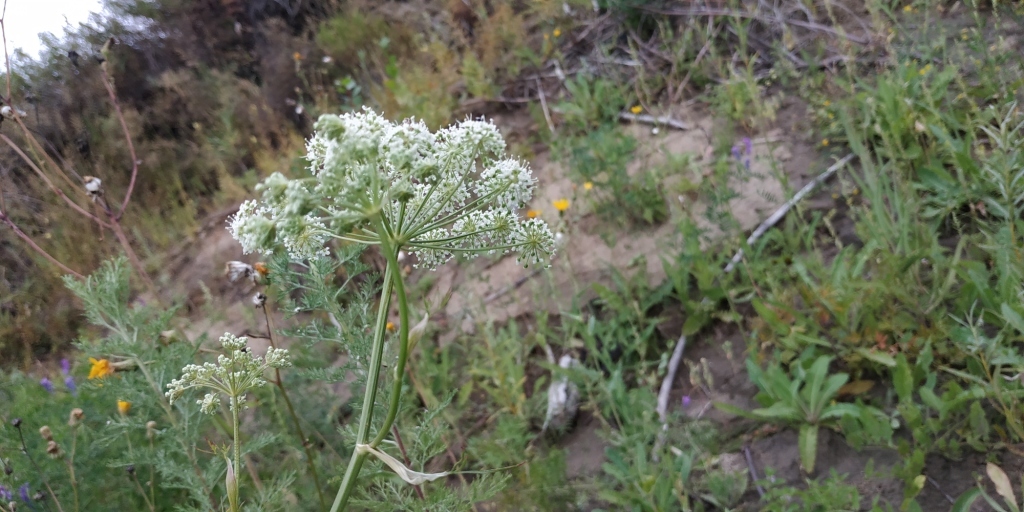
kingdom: Plantae
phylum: Tracheophyta
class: Magnoliopsida
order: Apiales
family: Apiaceae
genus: Cenolophium
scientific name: Cenolophium fischeri
